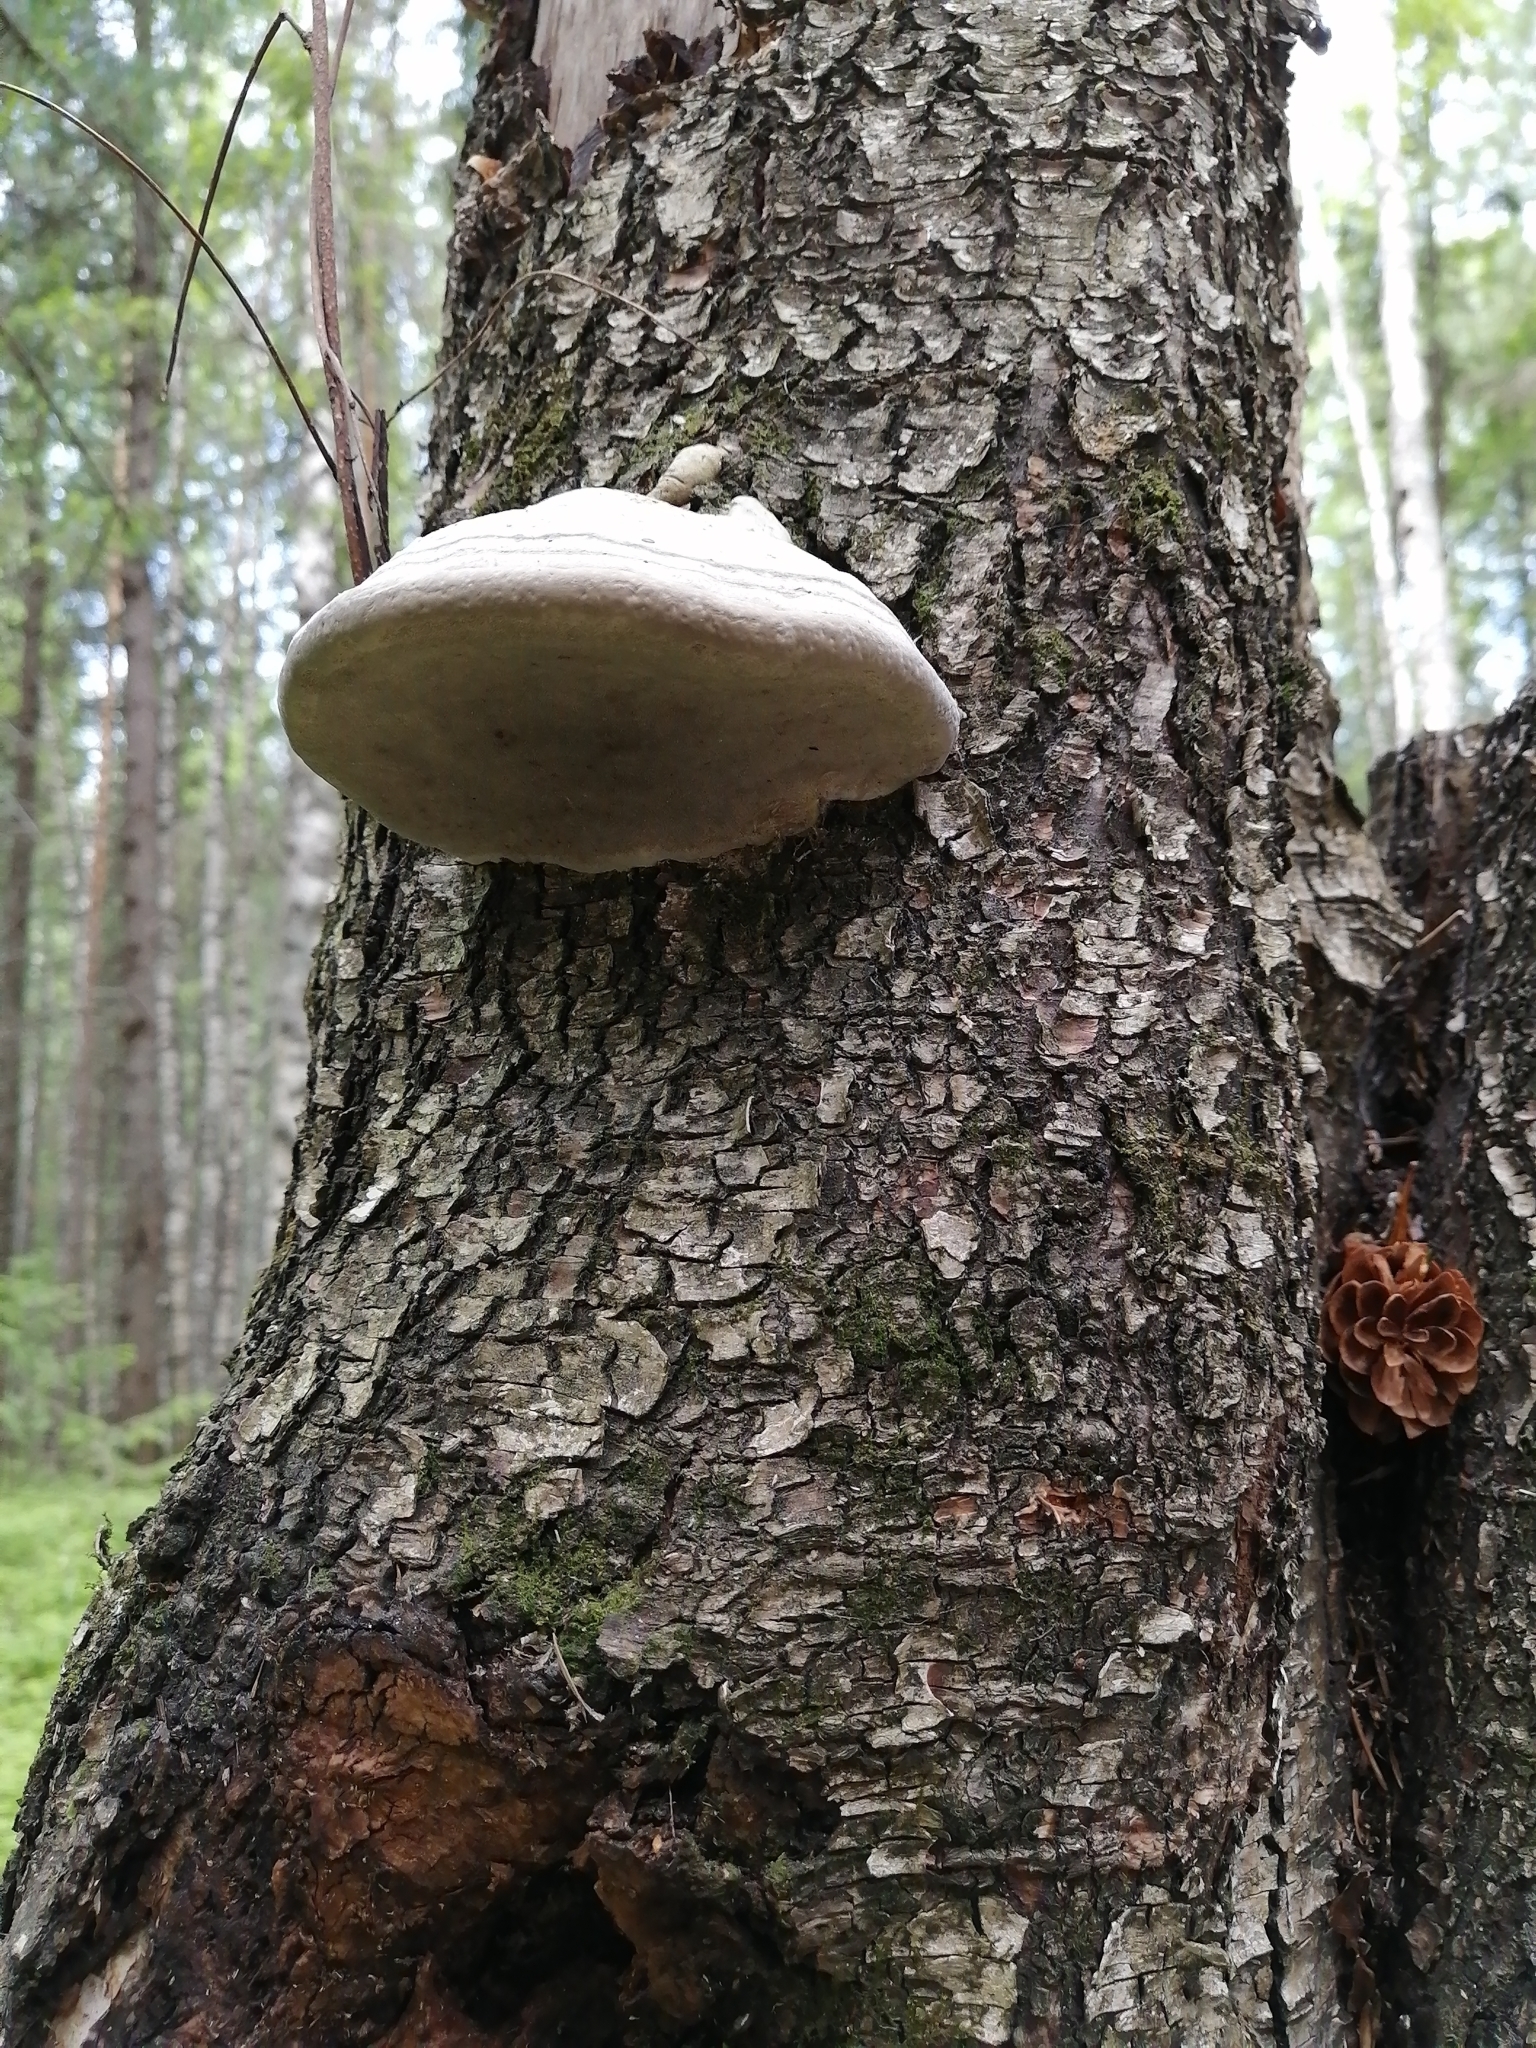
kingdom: Fungi
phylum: Basidiomycota
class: Agaricomycetes
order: Polyporales
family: Polyporaceae
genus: Fomes
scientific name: Fomes fomentarius
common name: Hoof fungus
